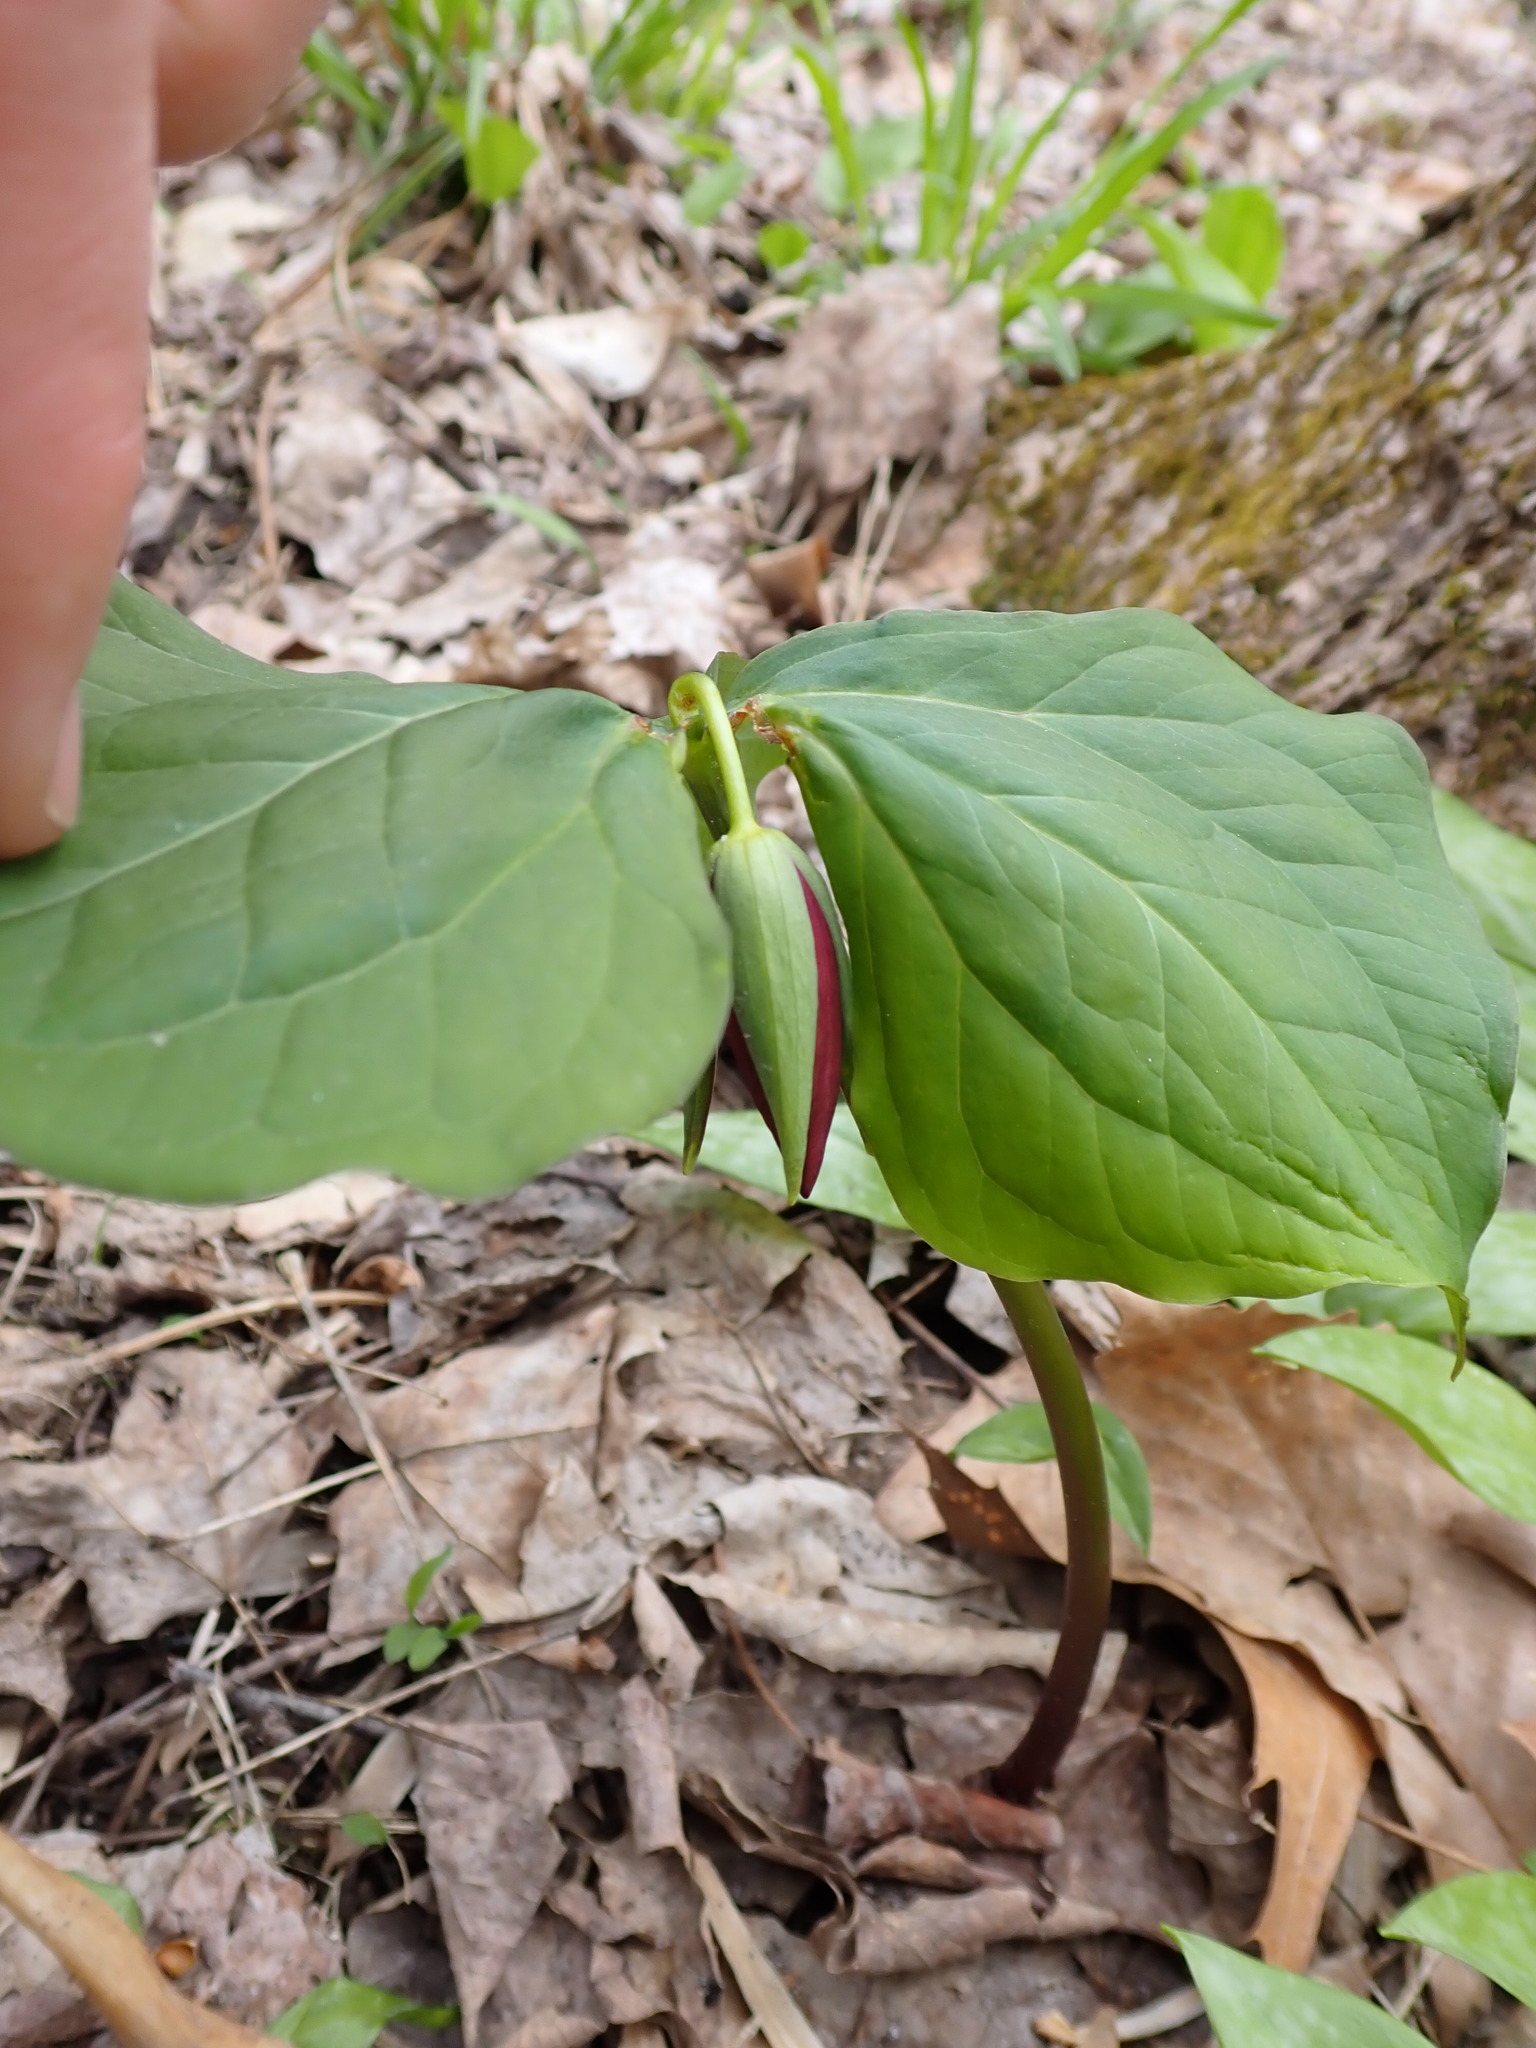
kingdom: Plantae
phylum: Tracheophyta
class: Liliopsida
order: Liliales
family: Melanthiaceae
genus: Trillium
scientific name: Trillium erectum
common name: Purple trillium
